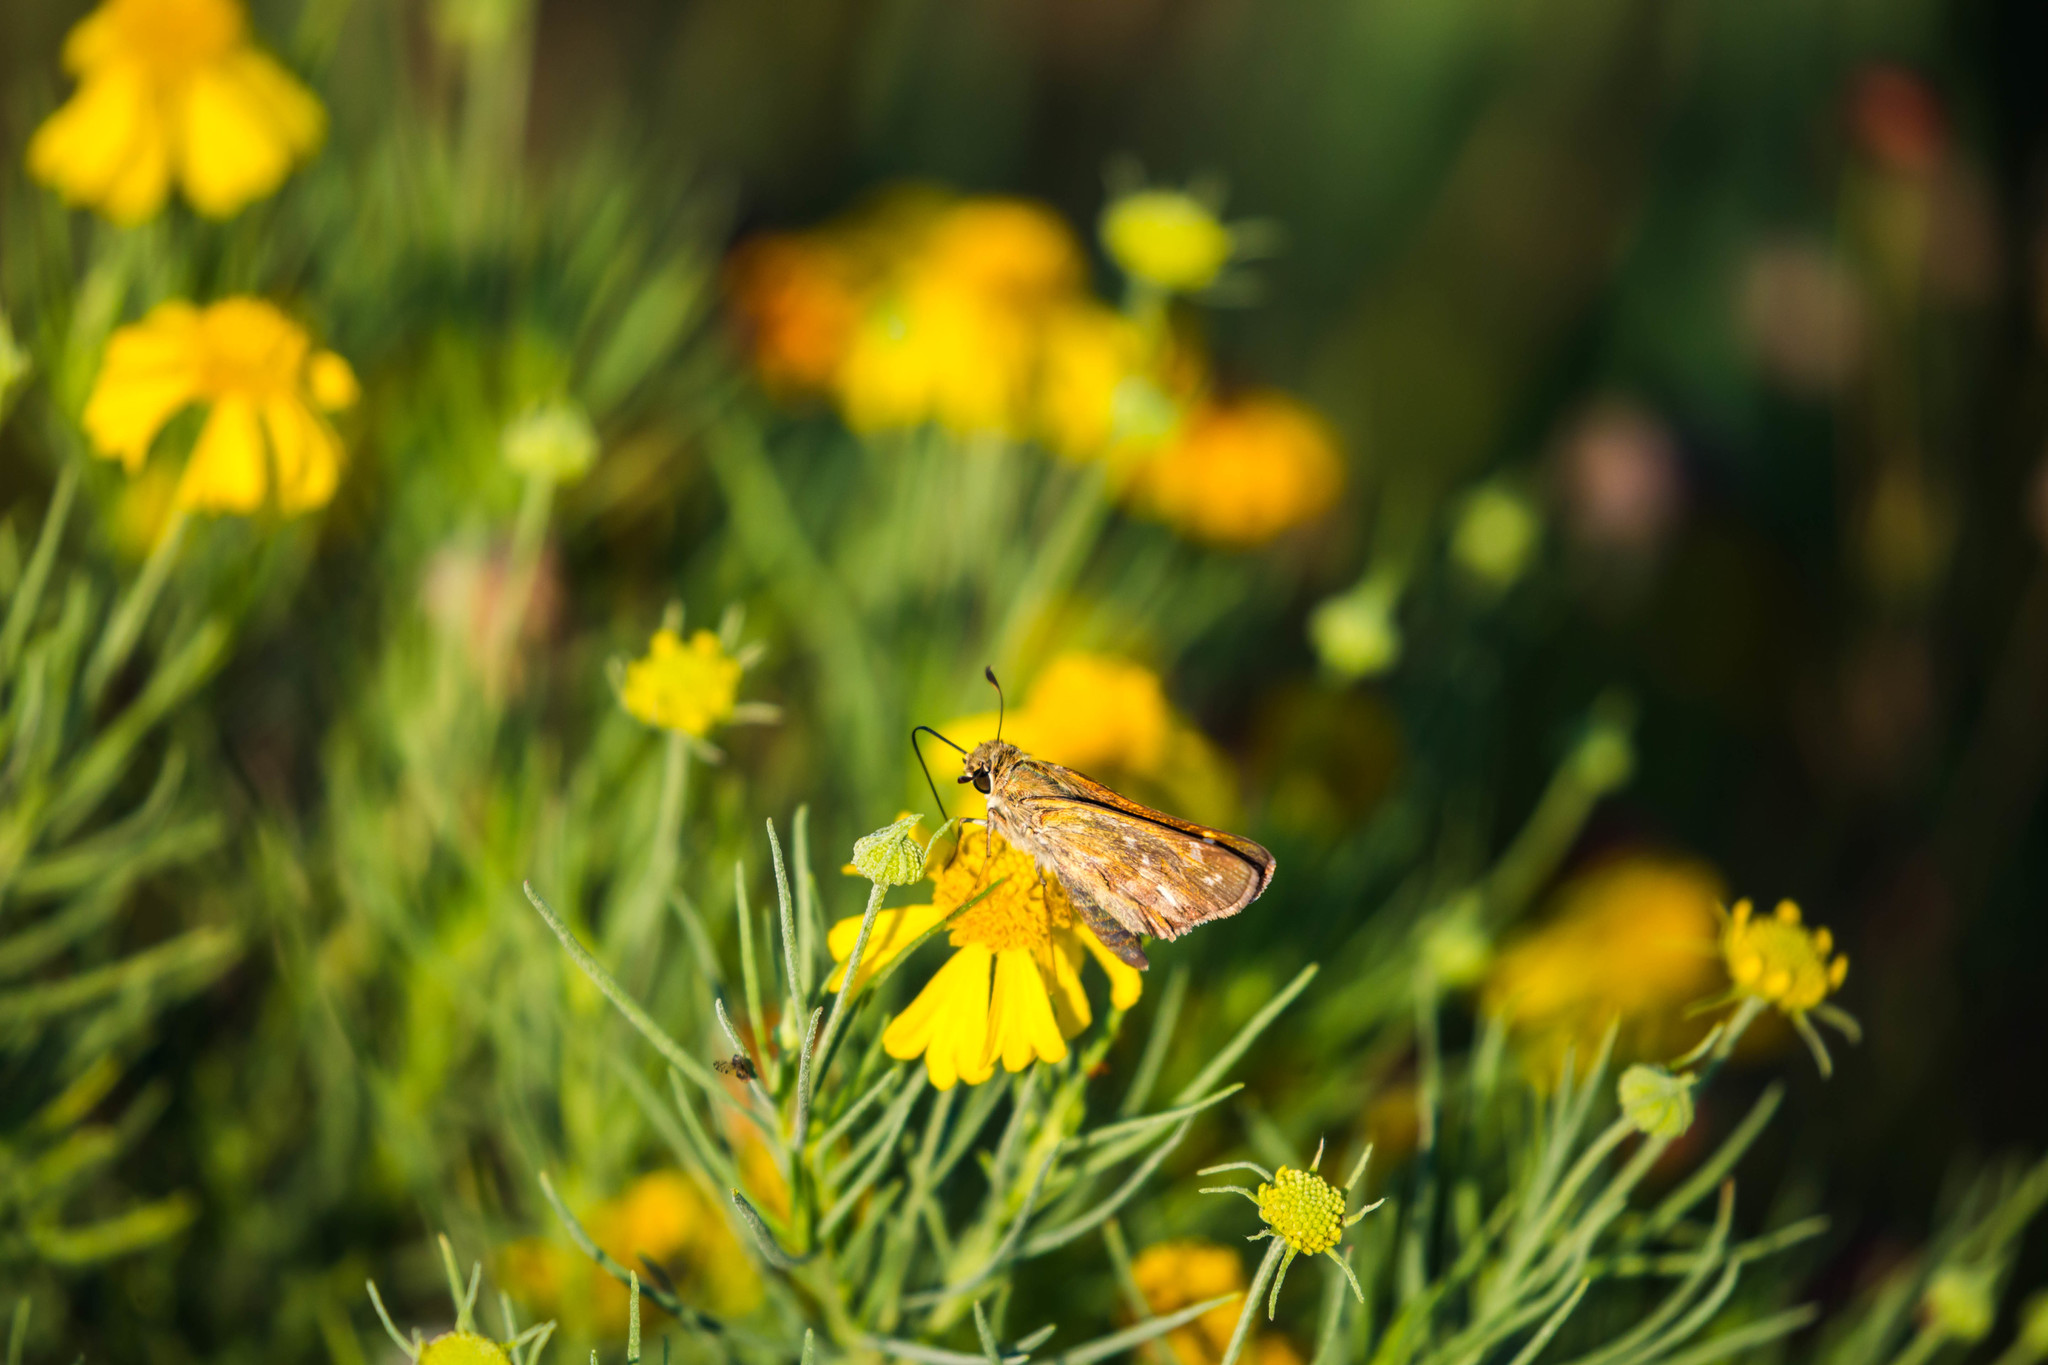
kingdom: Animalia
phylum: Arthropoda
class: Insecta
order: Lepidoptera
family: Hesperiidae
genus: Atalopedes
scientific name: Atalopedes
